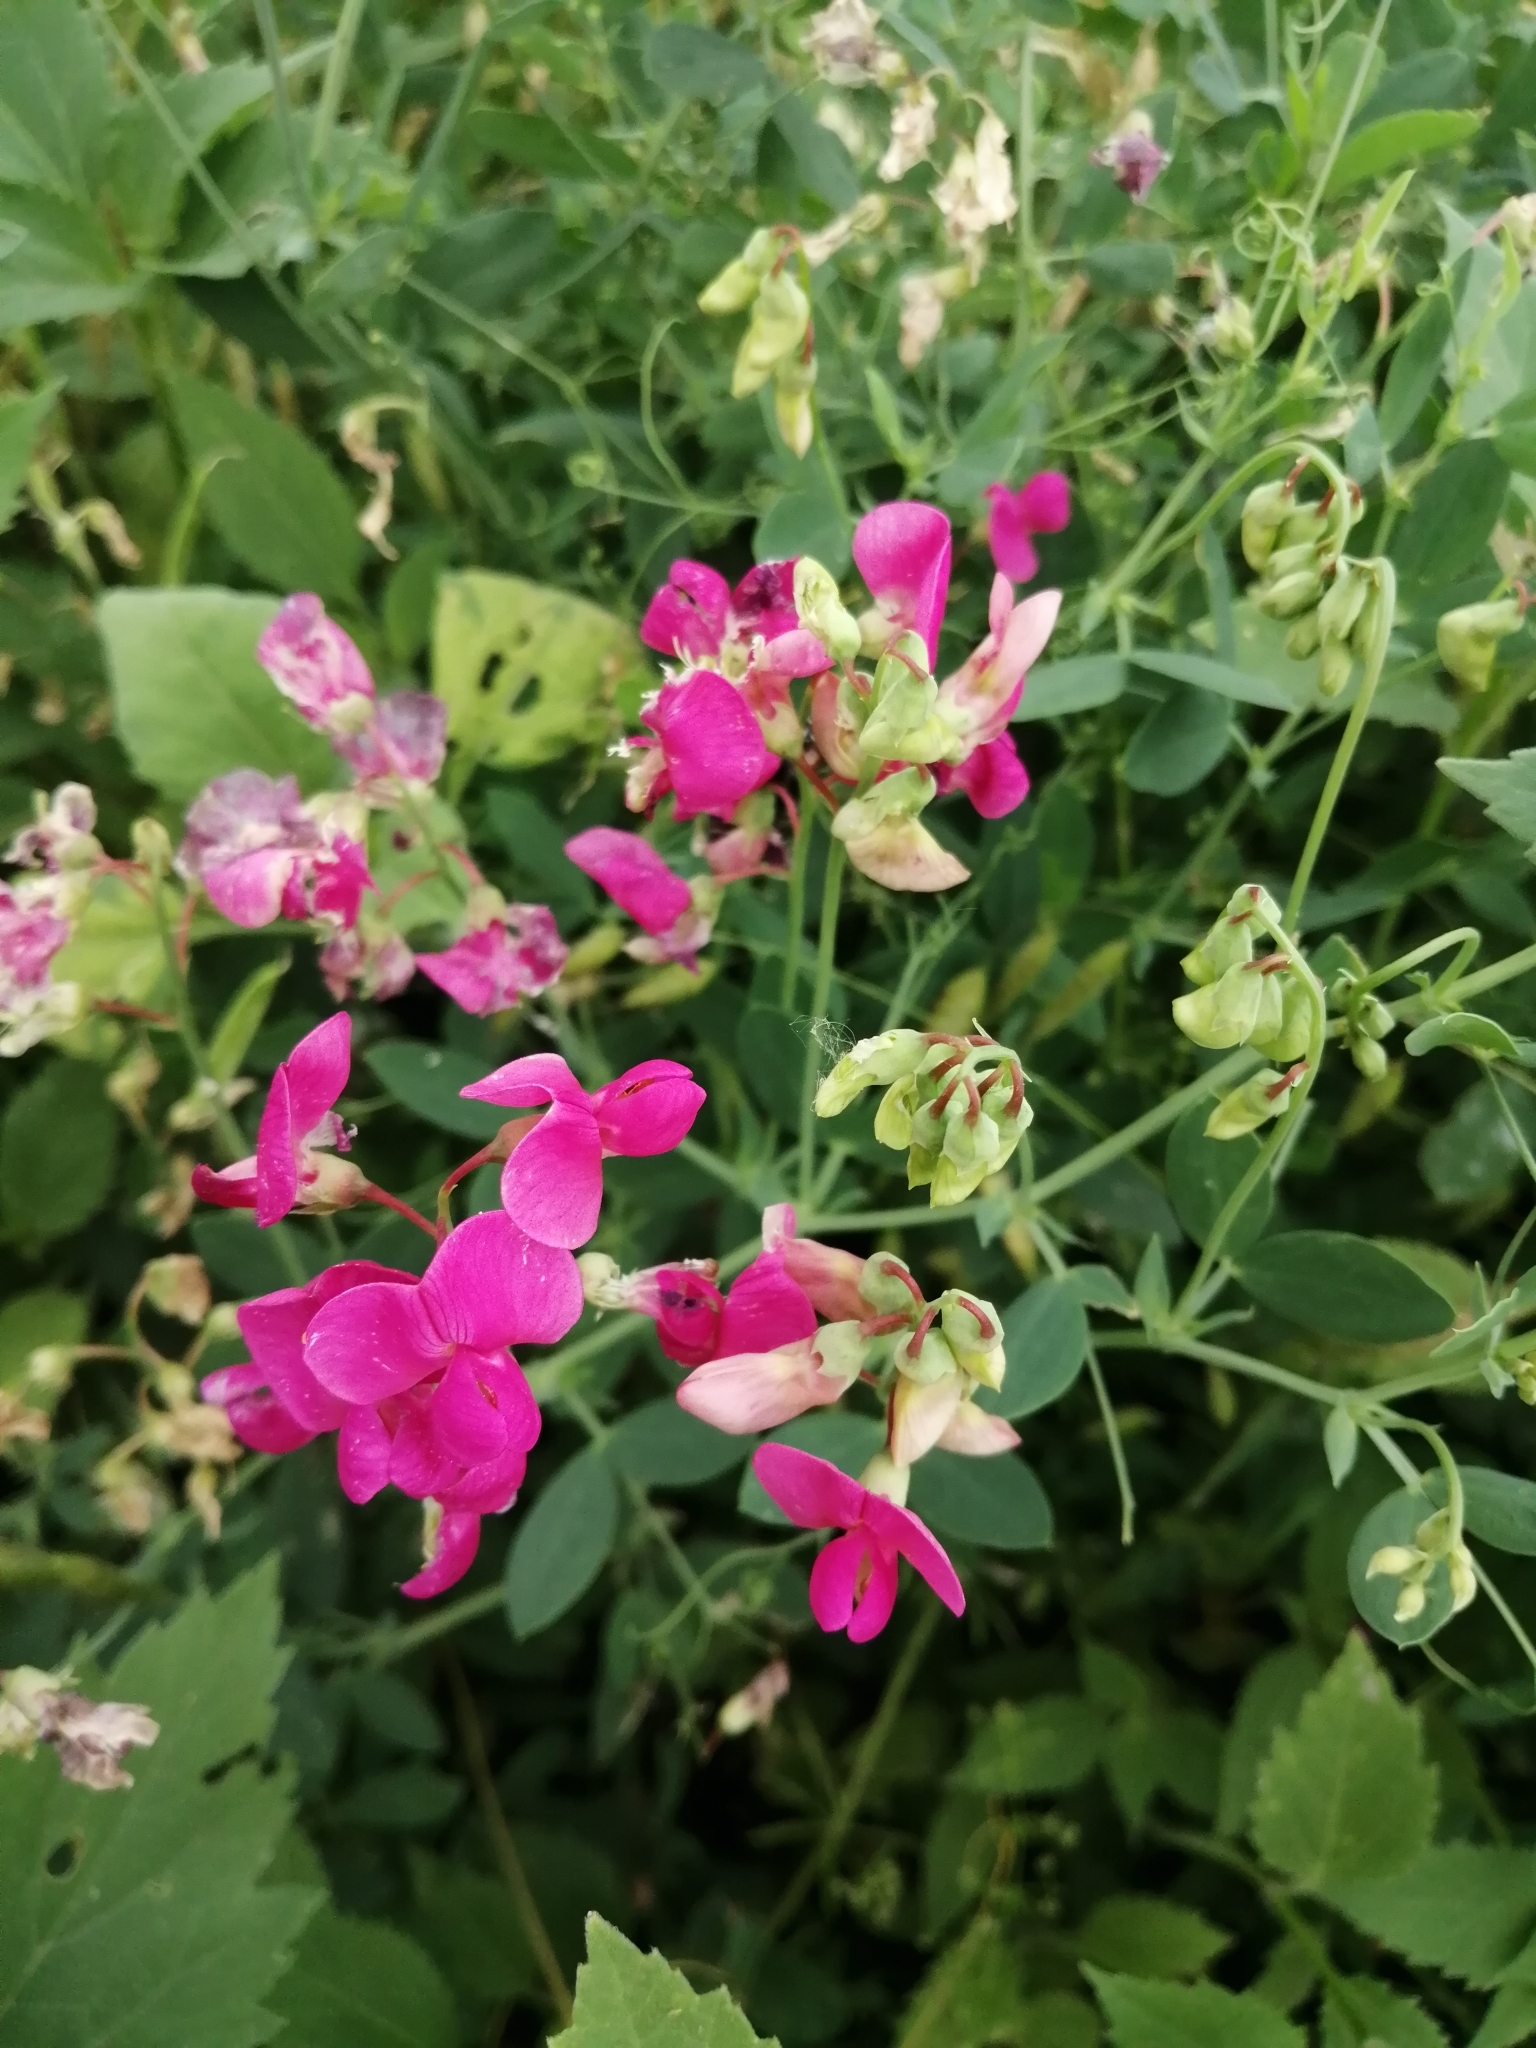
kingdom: Plantae
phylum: Tracheophyta
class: Magnoliopsida
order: Fabales
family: Fabaceae
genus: Lathyrus
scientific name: Lathyrus tuberosus
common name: Tuberous pea
